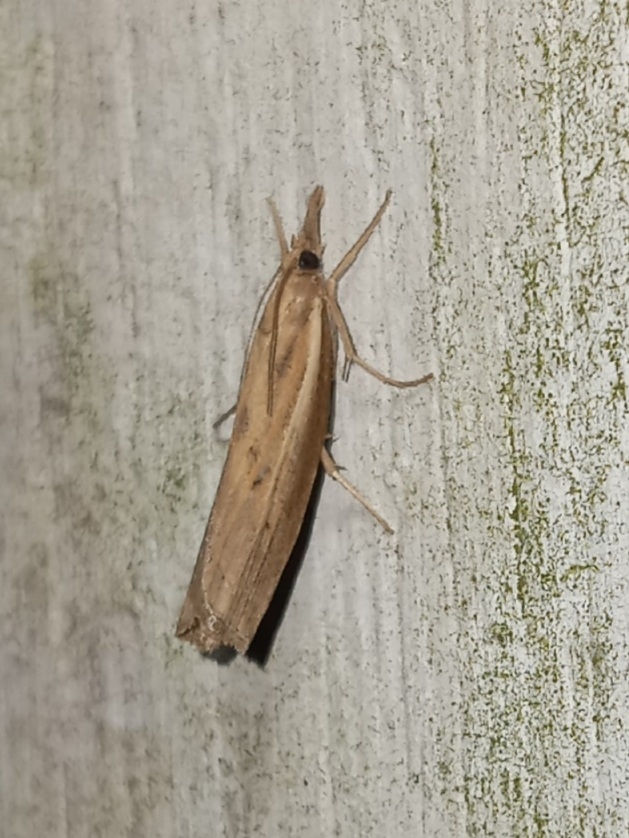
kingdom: Animalia
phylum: Arthropoda
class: Insecta
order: Lepidoptera
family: Crambidae
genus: Fissicrambus
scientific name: Fissicrambus mutabilis
